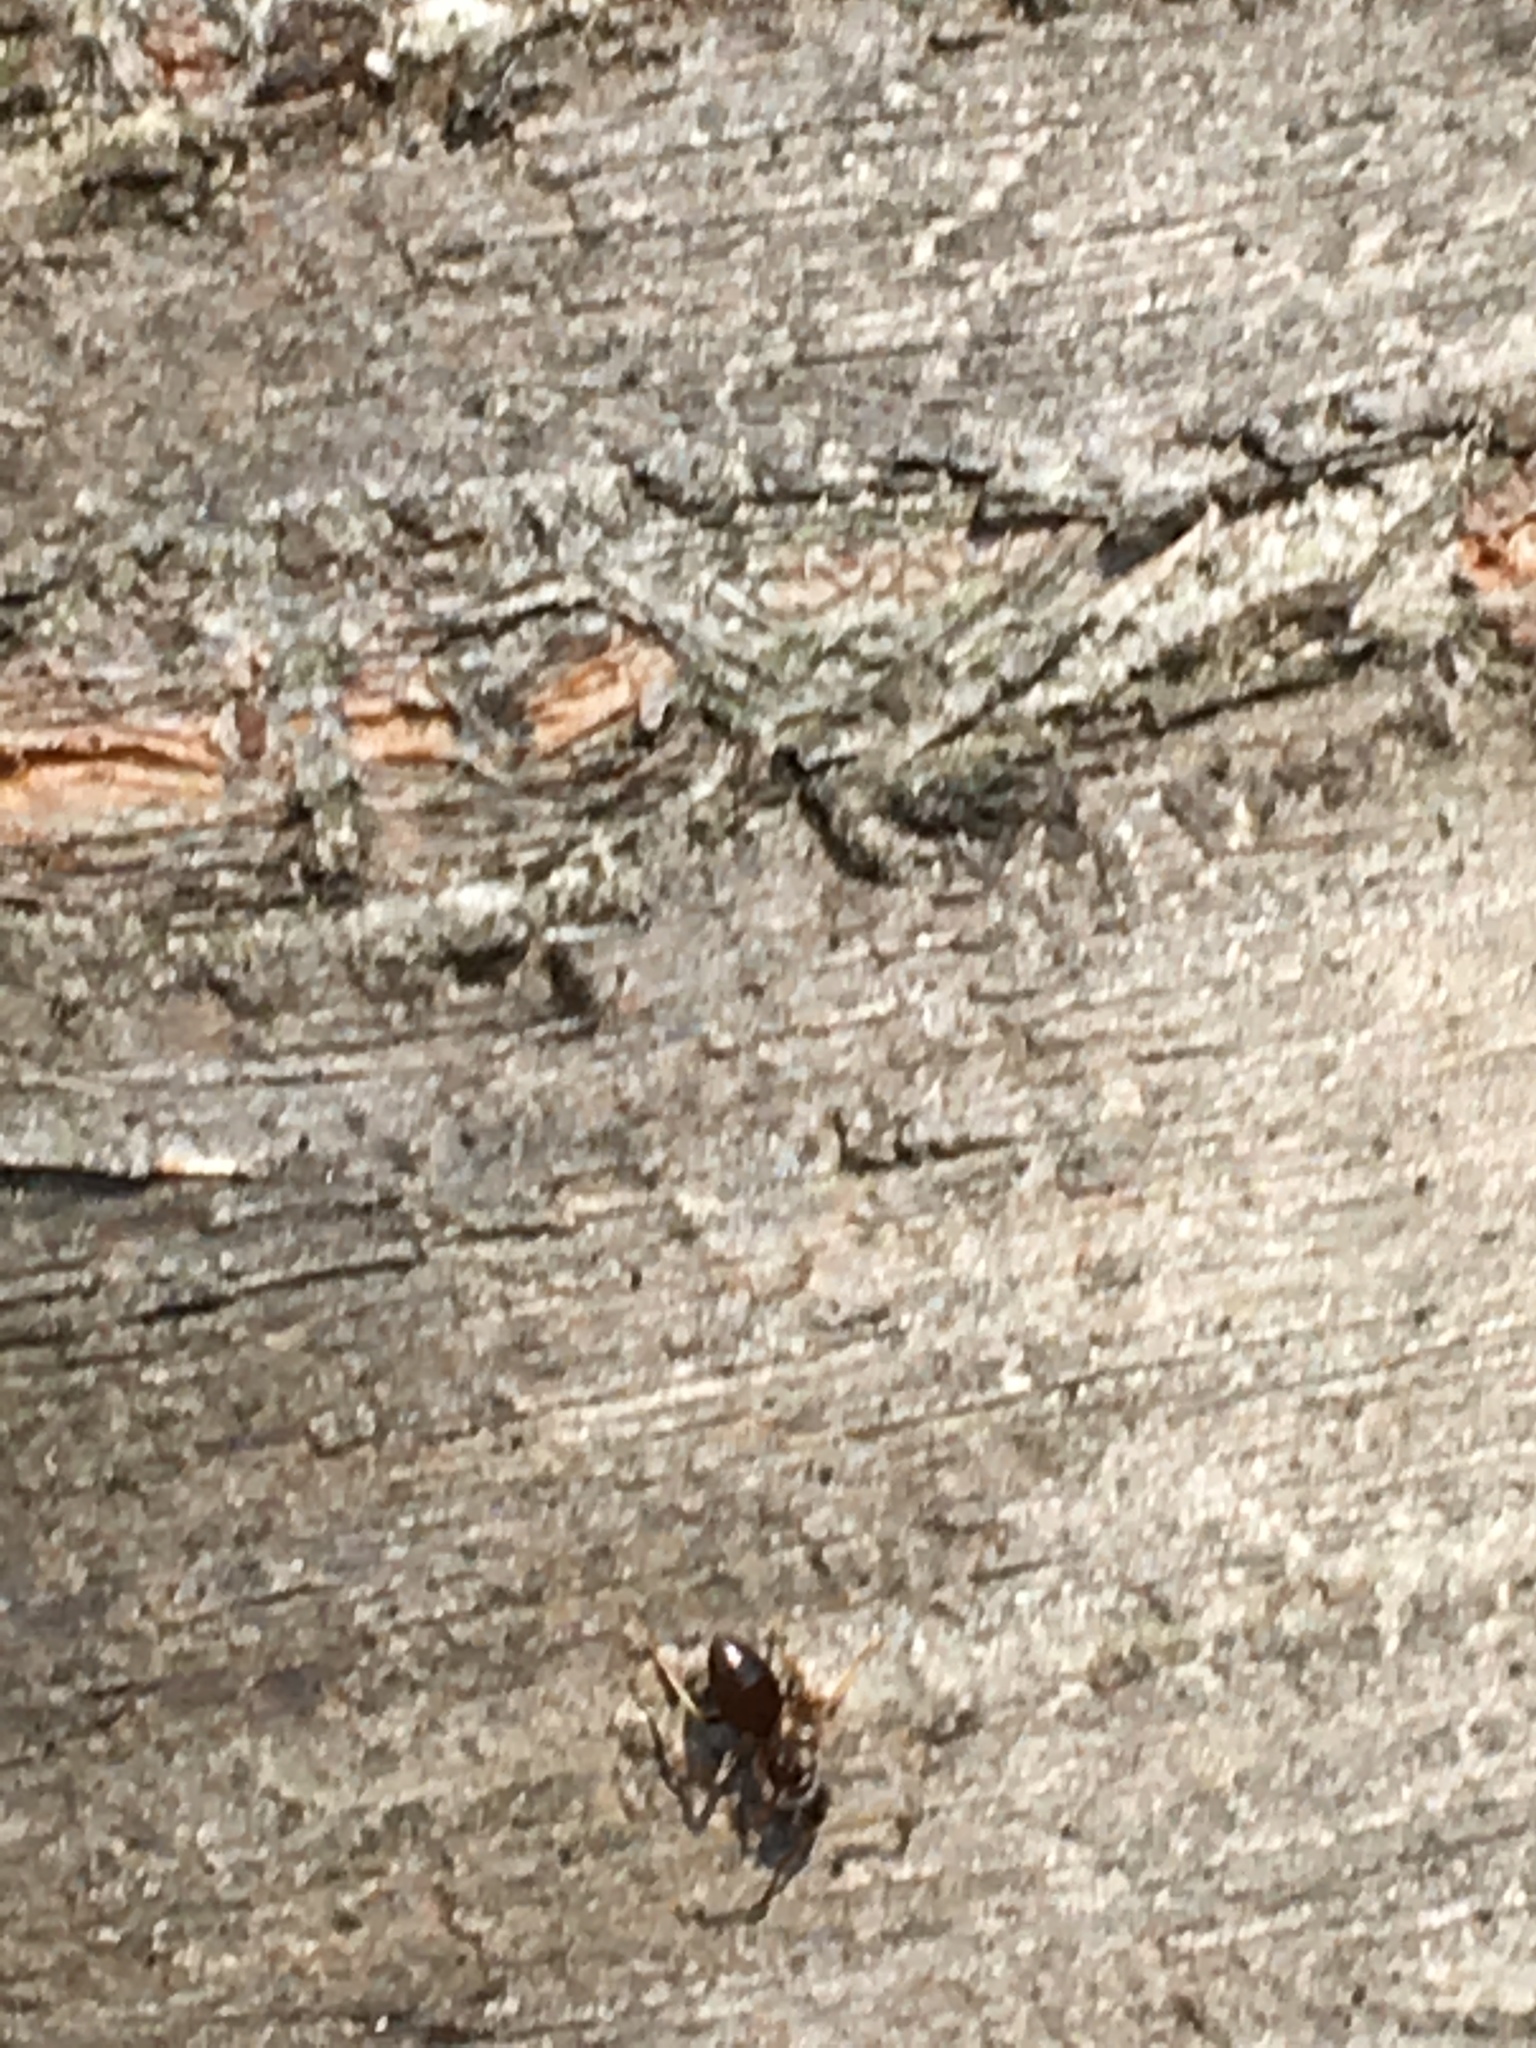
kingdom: Animalia
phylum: Arthropoda
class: Insecta
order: Hymenoptera
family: Formicidae
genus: Lasius
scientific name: Lasius
